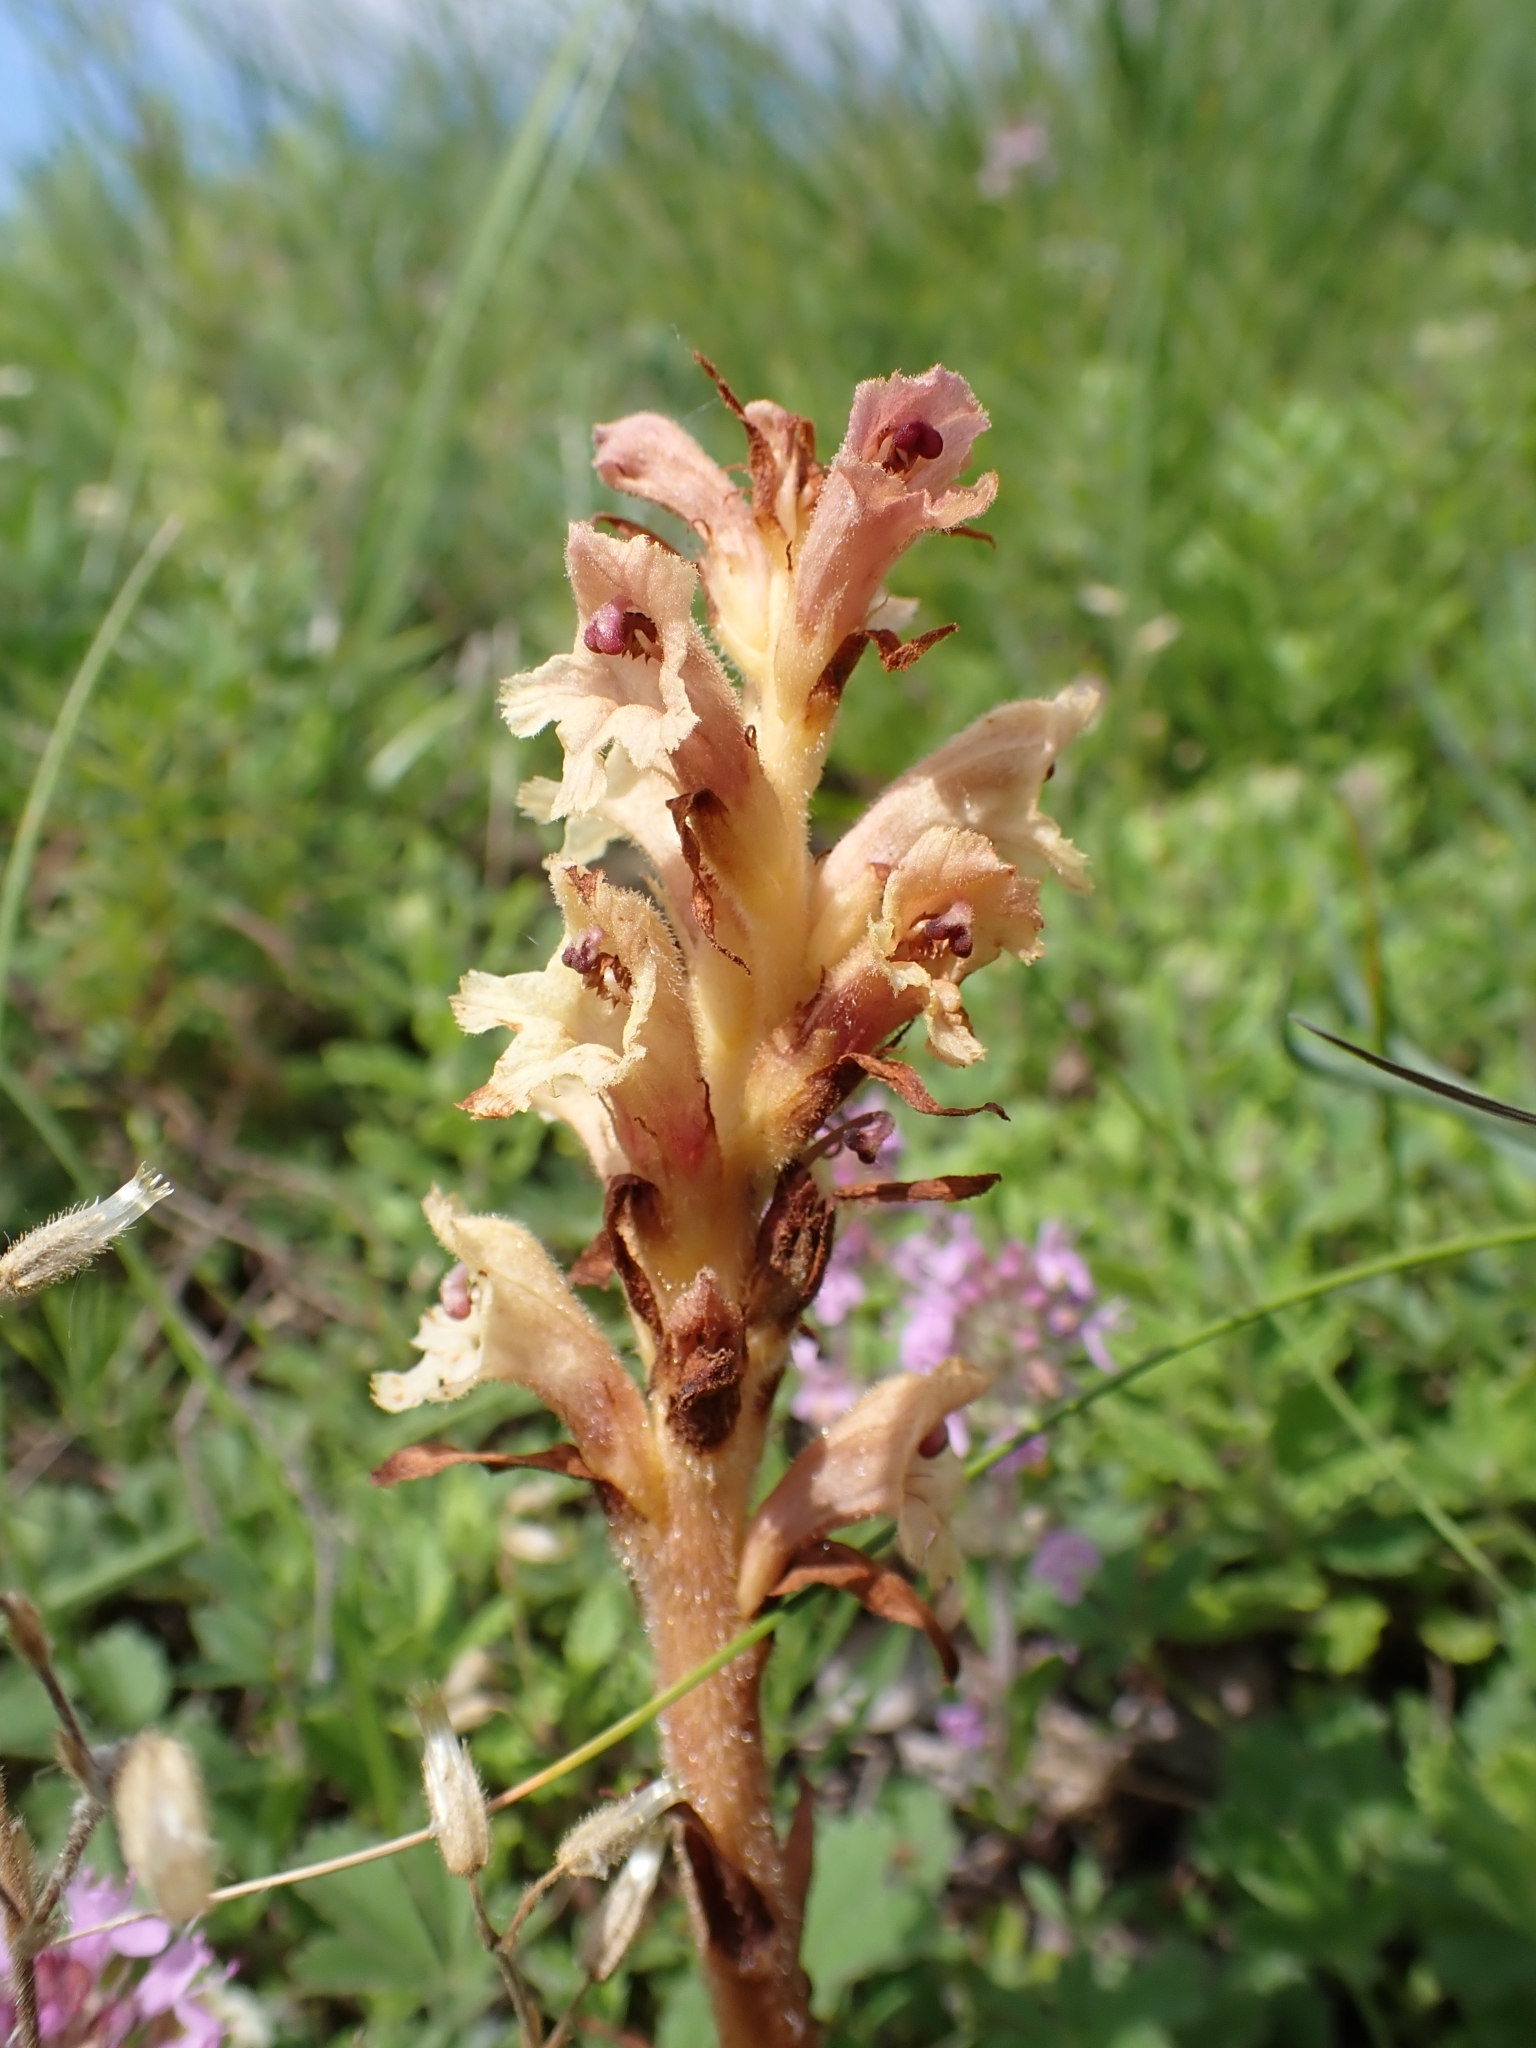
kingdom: Plantae
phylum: Tracheophyta
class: Magnoliopsida
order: Lamiales
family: Orobanchaceae
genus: Orobanche
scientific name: Orobanche teucrii
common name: Germander broomrape
